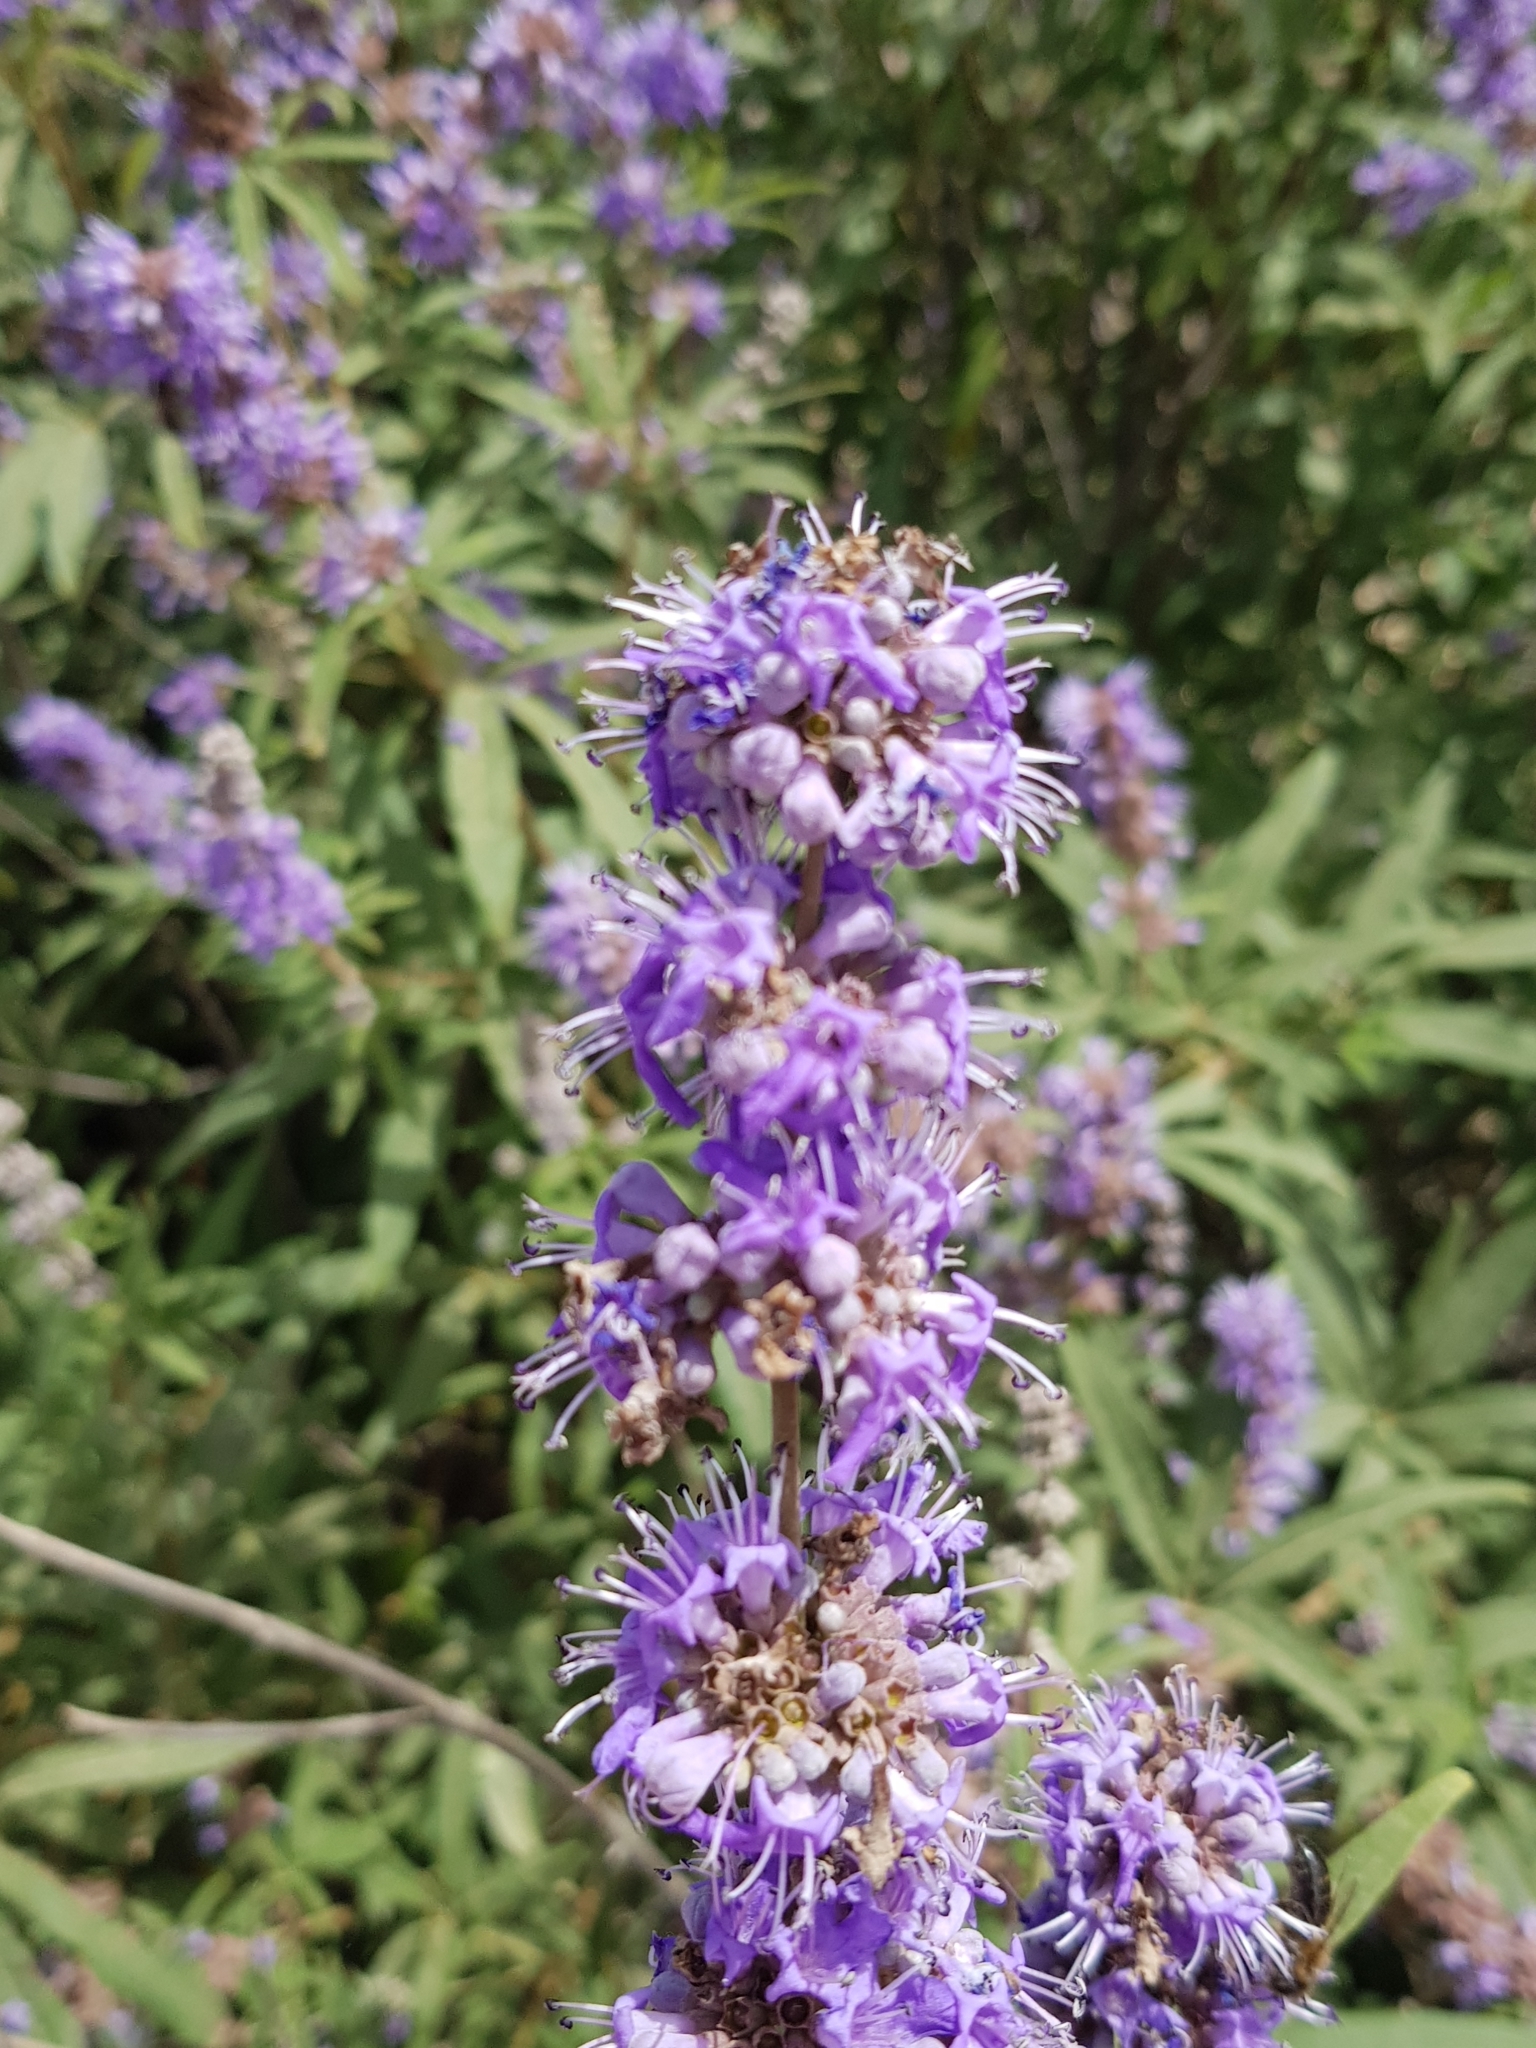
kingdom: Plantae
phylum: Tracheophyta
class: Magnoliopsida
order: Lamiales
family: Lamiaceae
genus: Vitex
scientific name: Vitex agnus-castus
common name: Chasteberry
